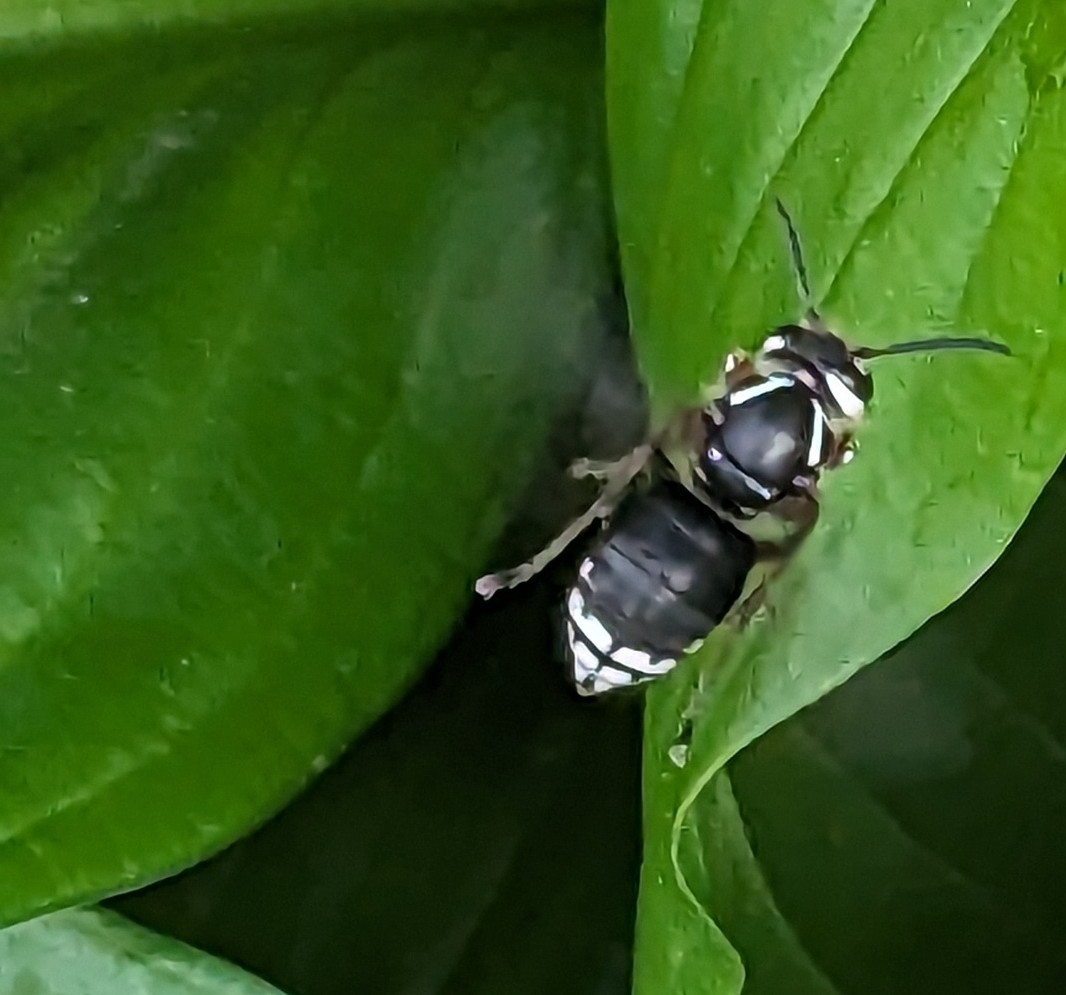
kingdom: Animalia
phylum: Arthropoda
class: Insecta
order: Hymenoptera
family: Vespidae
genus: Dolichovespula
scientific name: Dolichovespula maculata
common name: Bald-faced hornet
